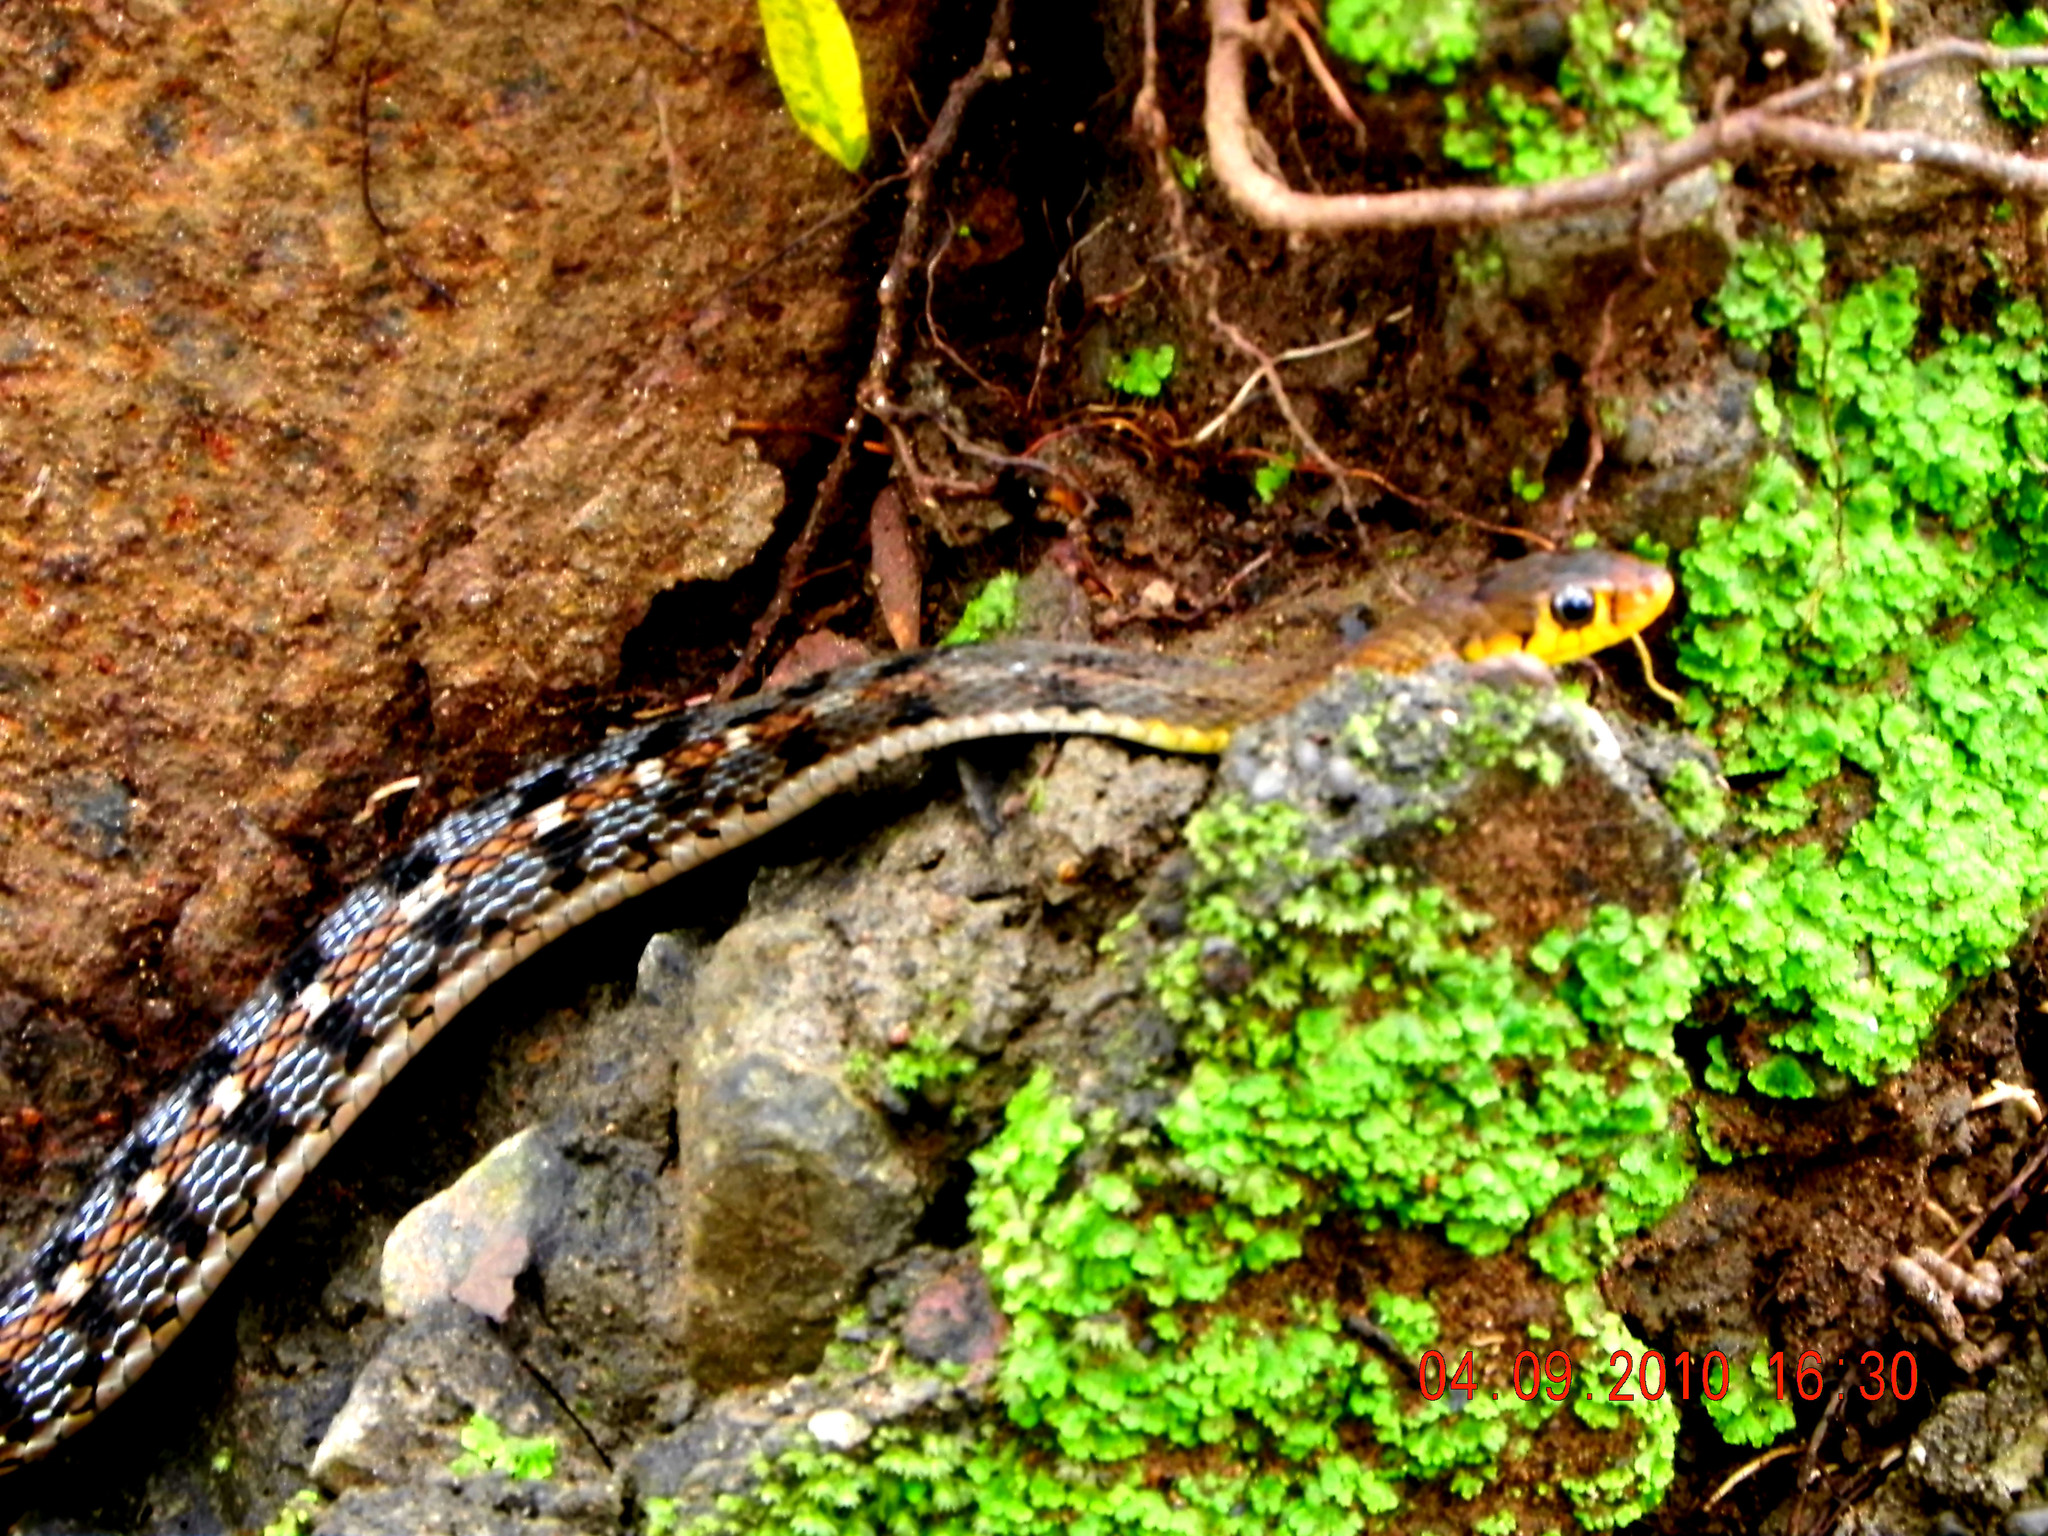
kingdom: Animalia
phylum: Chordata
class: Squamata
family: Colubridae
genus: Amphiesma
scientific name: Amphiesma stolatum
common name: Buff striped keelback
